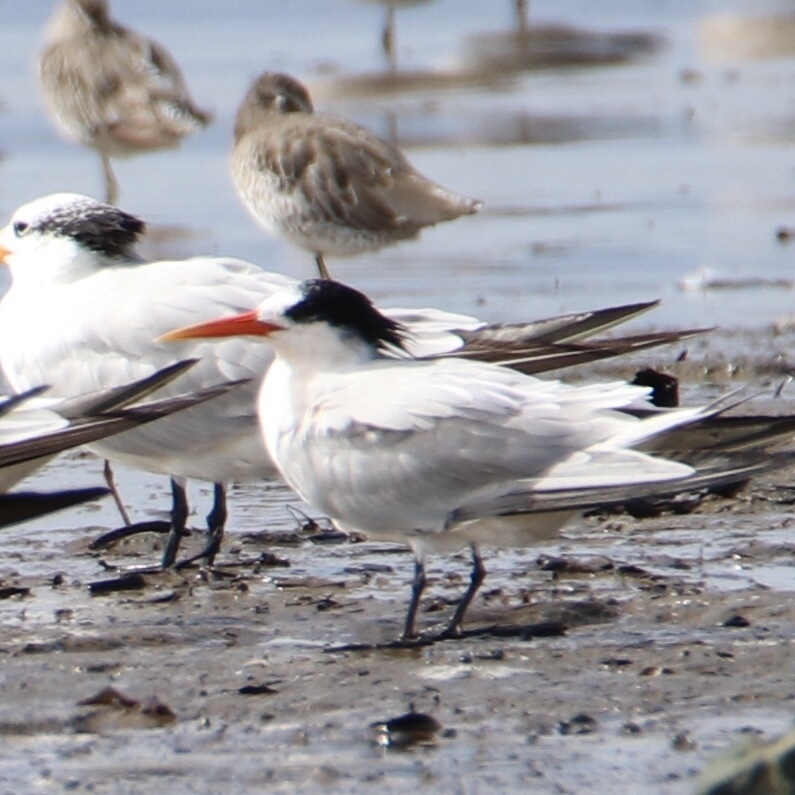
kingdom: Animalia
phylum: Chordata
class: Aves
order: Charadriiformes
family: Laridae
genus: Thalasseus
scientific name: Thalasseus elegans
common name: Elegant tern
